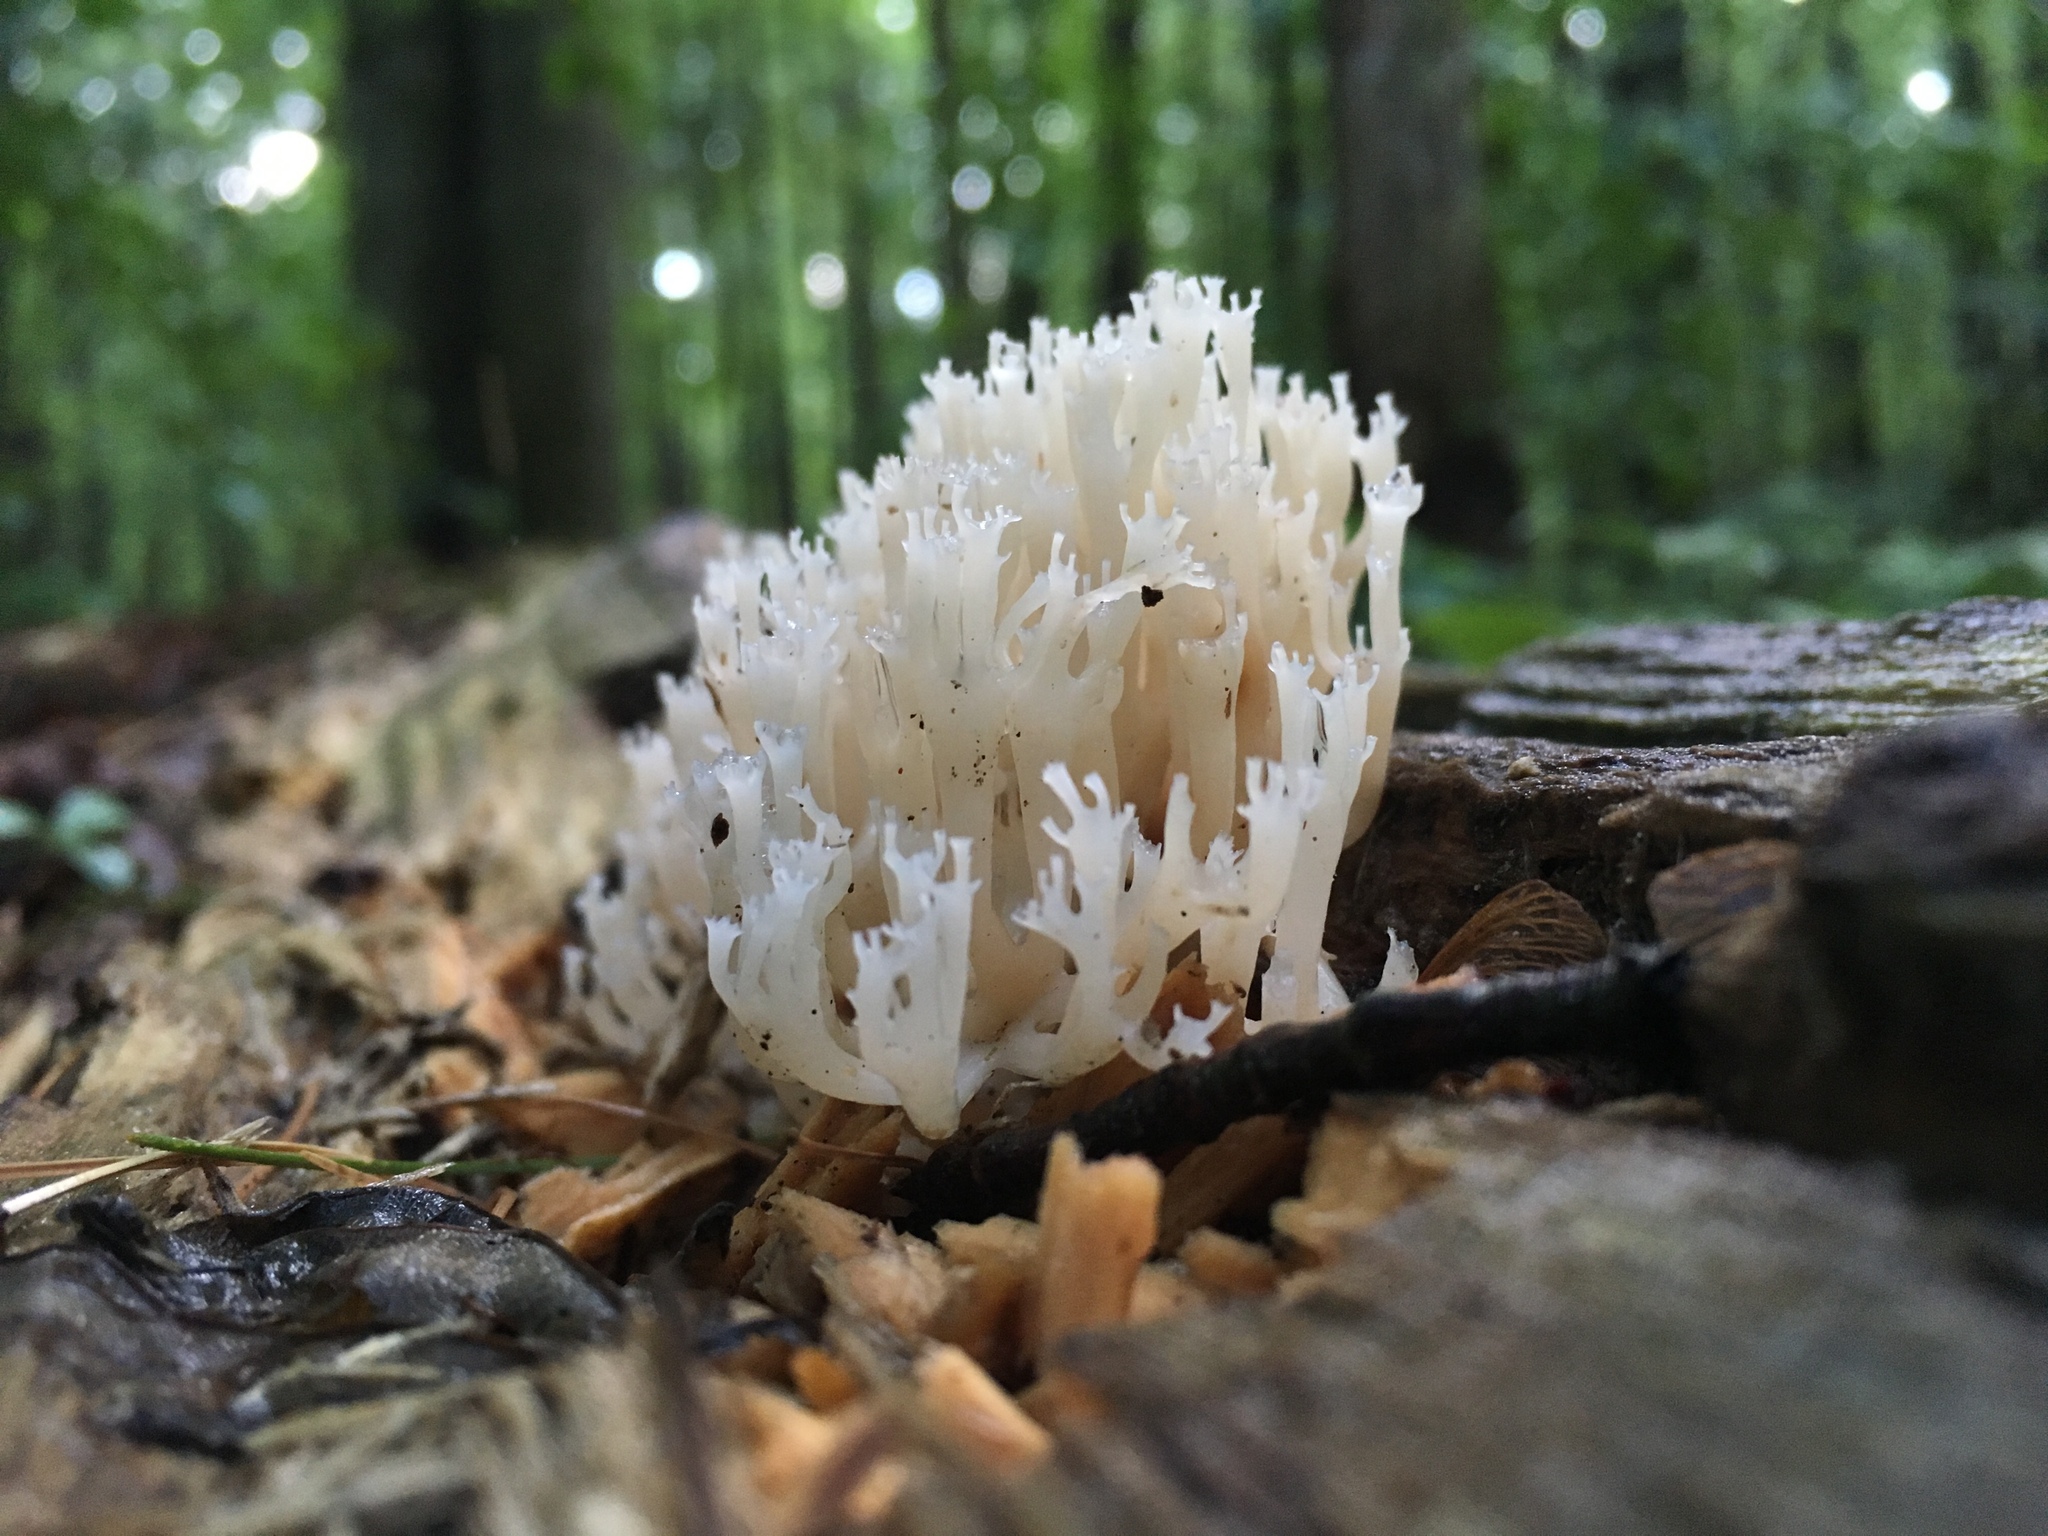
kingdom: Fungi
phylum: Basidiomycota
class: Agaricomycetes
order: Russulales
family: Auriscalpiaceae
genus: Artomyces
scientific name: Artomyces pyxidatus
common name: Crown-tipped coral fungus
